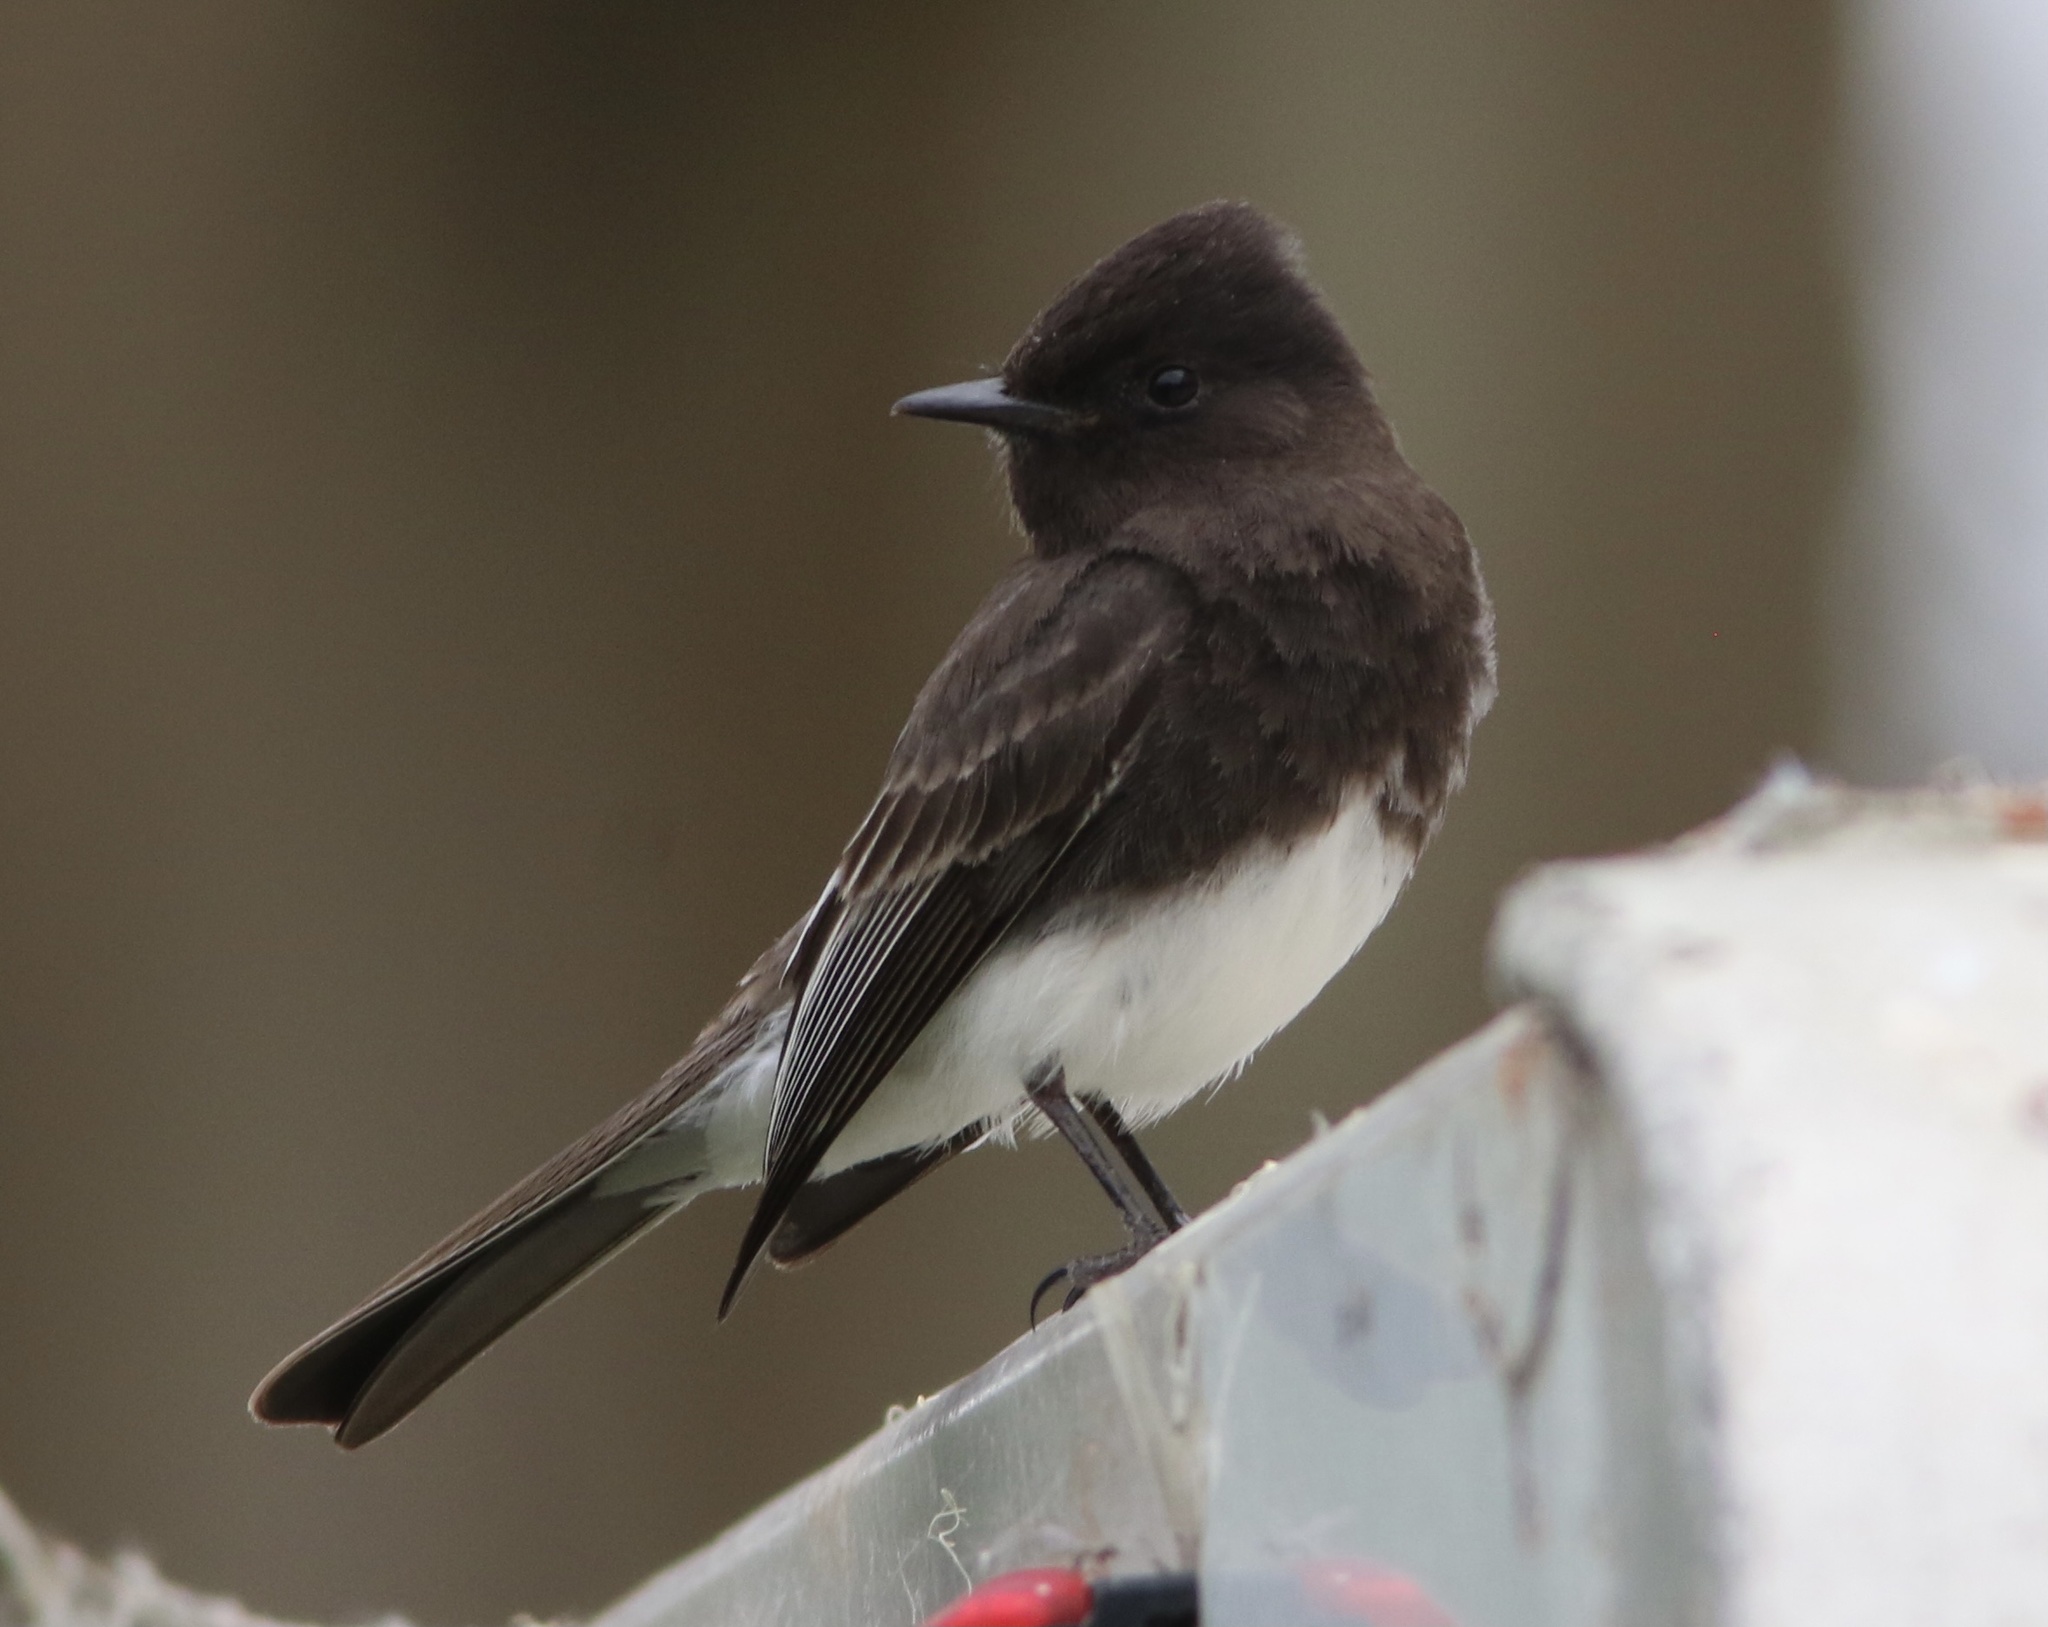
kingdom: Animalia
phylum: Chordata
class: Aves
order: Passeriformes
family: Tyrannidae
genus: Sayornis
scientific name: Sayornis nigricans
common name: Black phoebe
